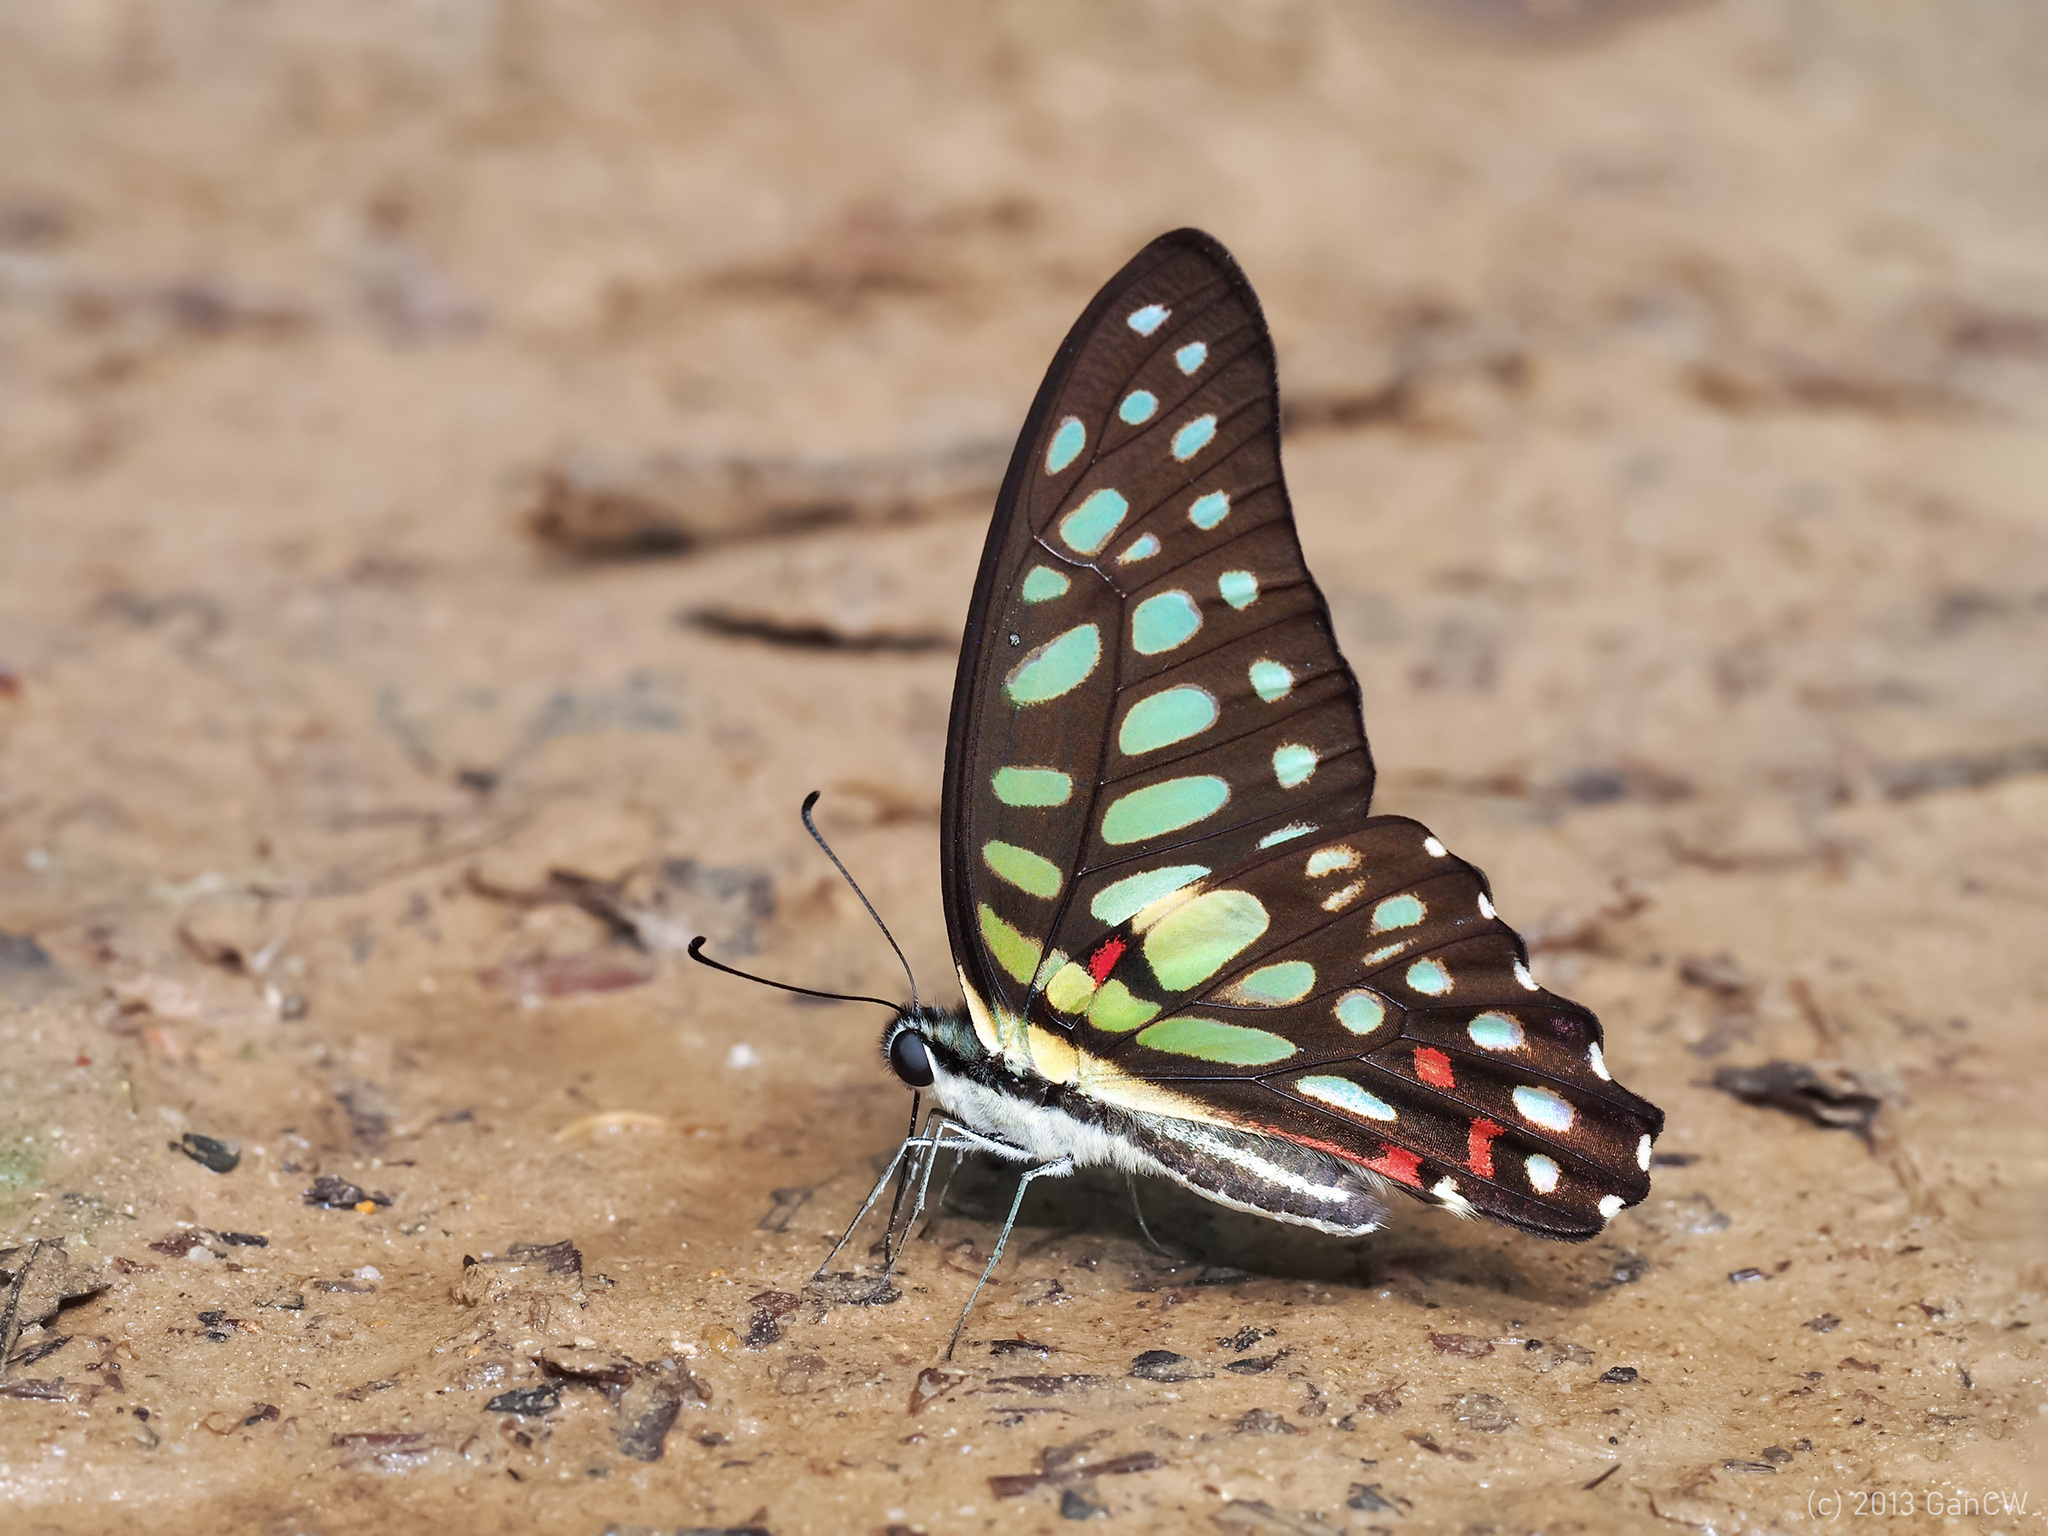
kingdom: Animalia
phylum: Arthropoda
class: Insecta
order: Lepidoptera
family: Papilionidae
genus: Graphium
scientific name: Graphium arycles
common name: Spotted jay
